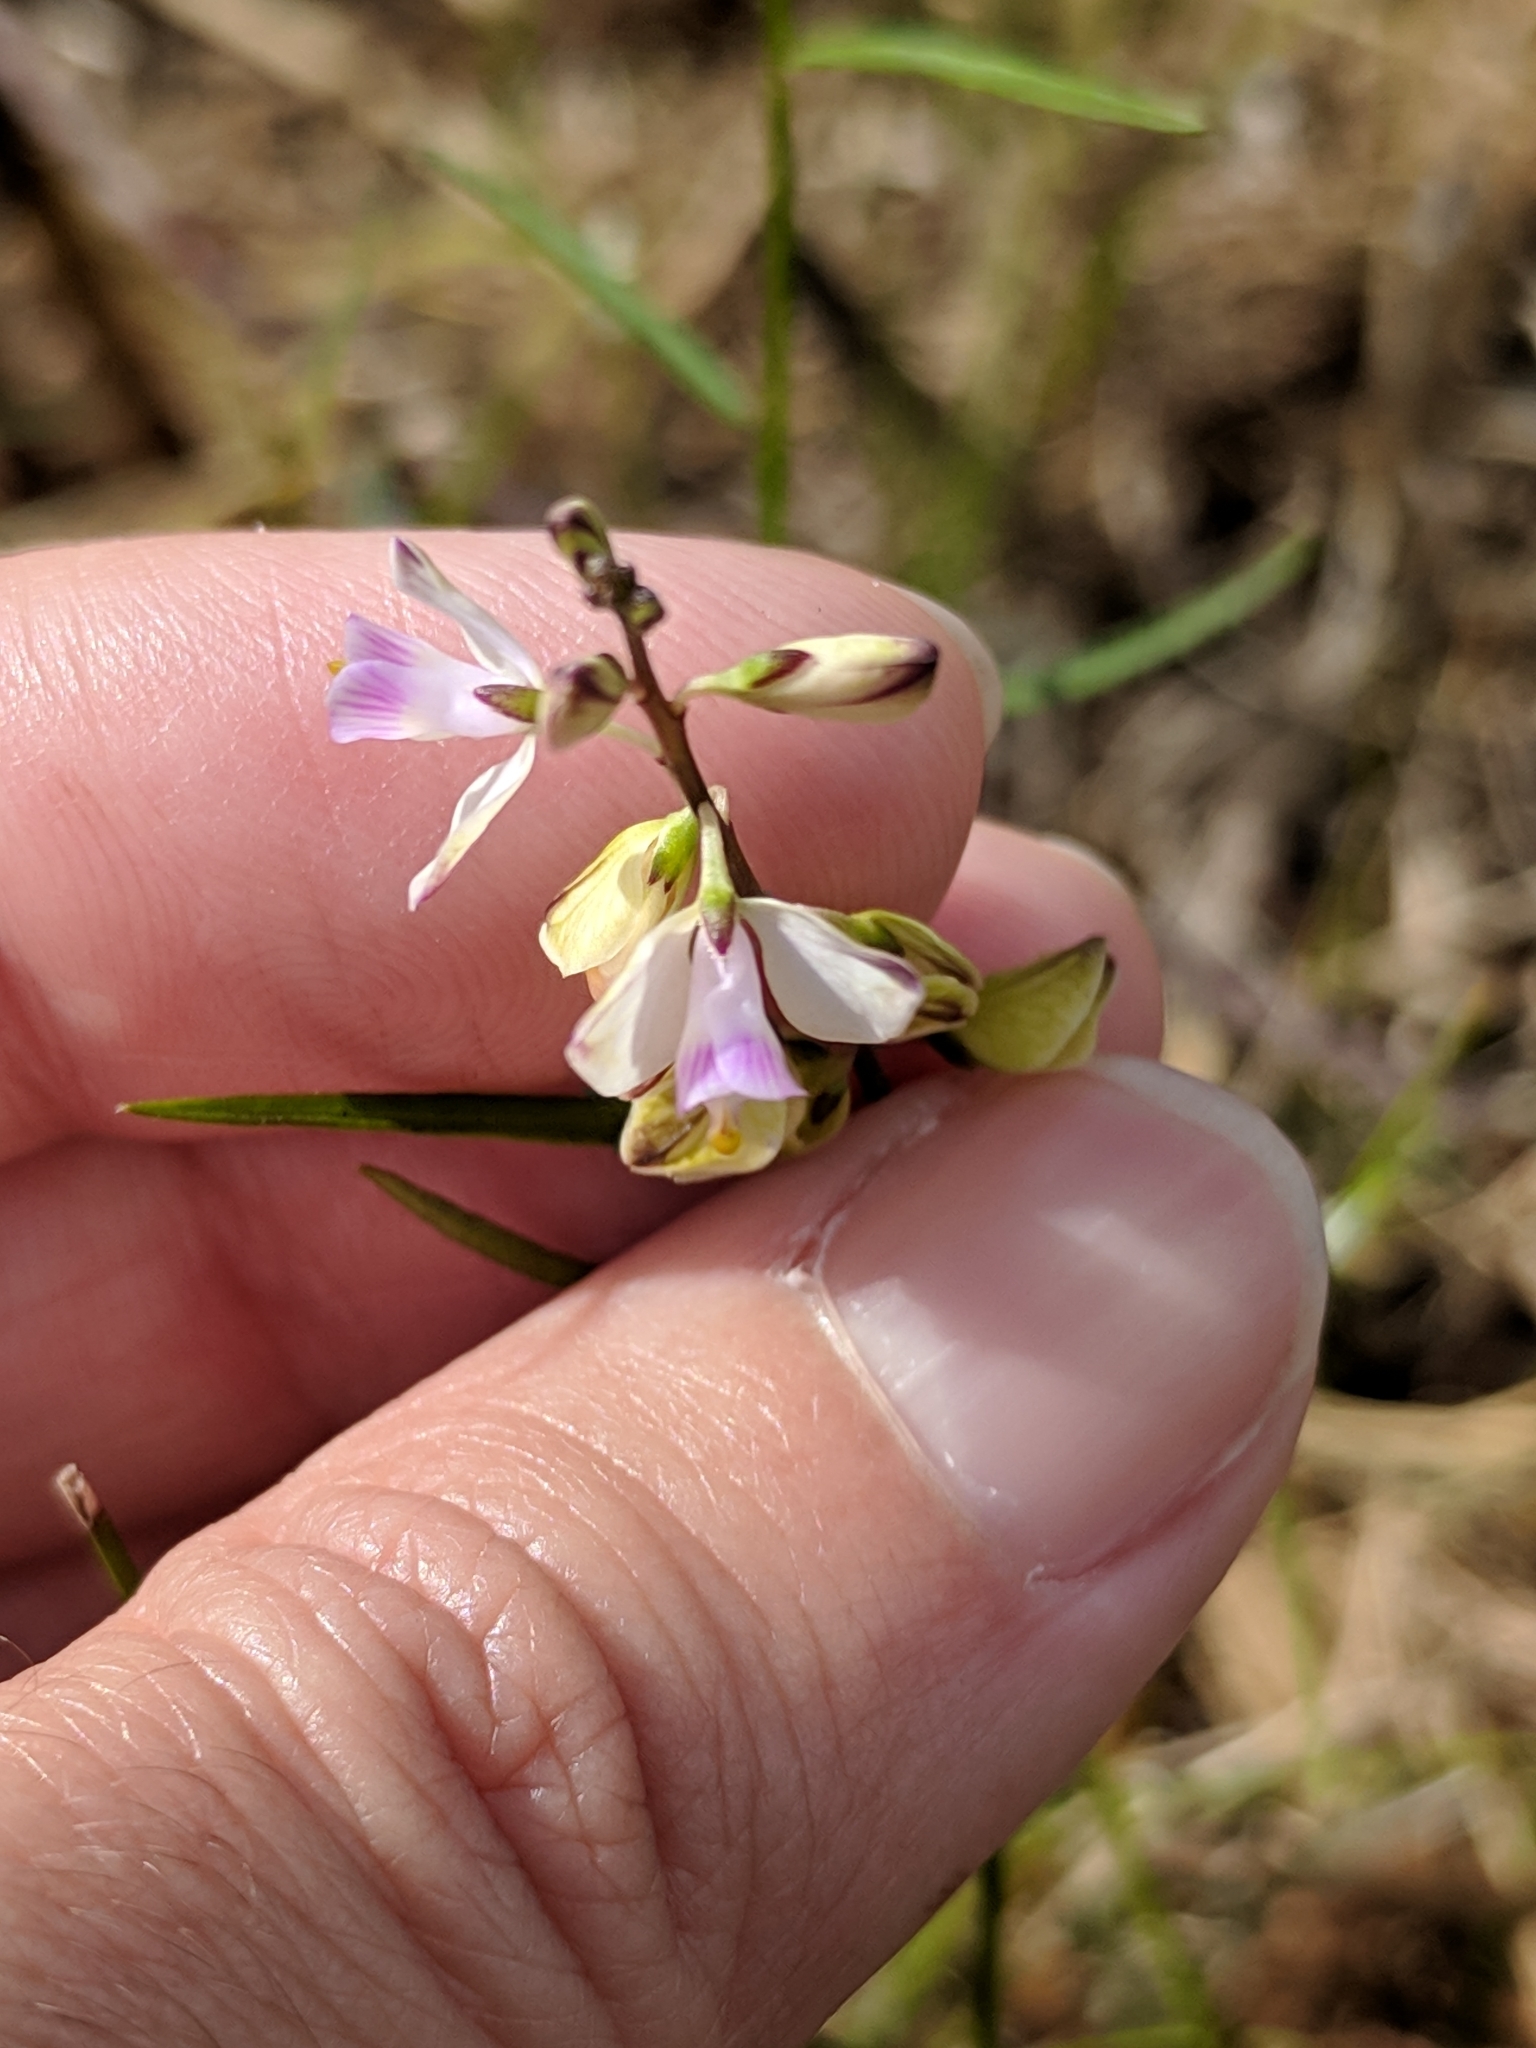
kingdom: Plantae
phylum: Tracheophyta
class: Magnoliopsida
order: Fabales
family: Polygalaceae
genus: Asemeia
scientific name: Asemeia grandiflora
